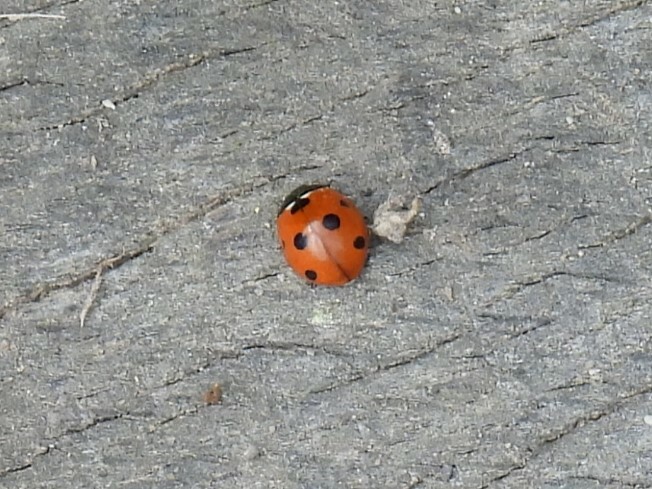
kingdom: Animalia
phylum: Arthropoda
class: Insecta
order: Coleoptera
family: Coccinellidae
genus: Coccinella
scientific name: Coccinella septempunctata
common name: Sevenspotted lady beetle
